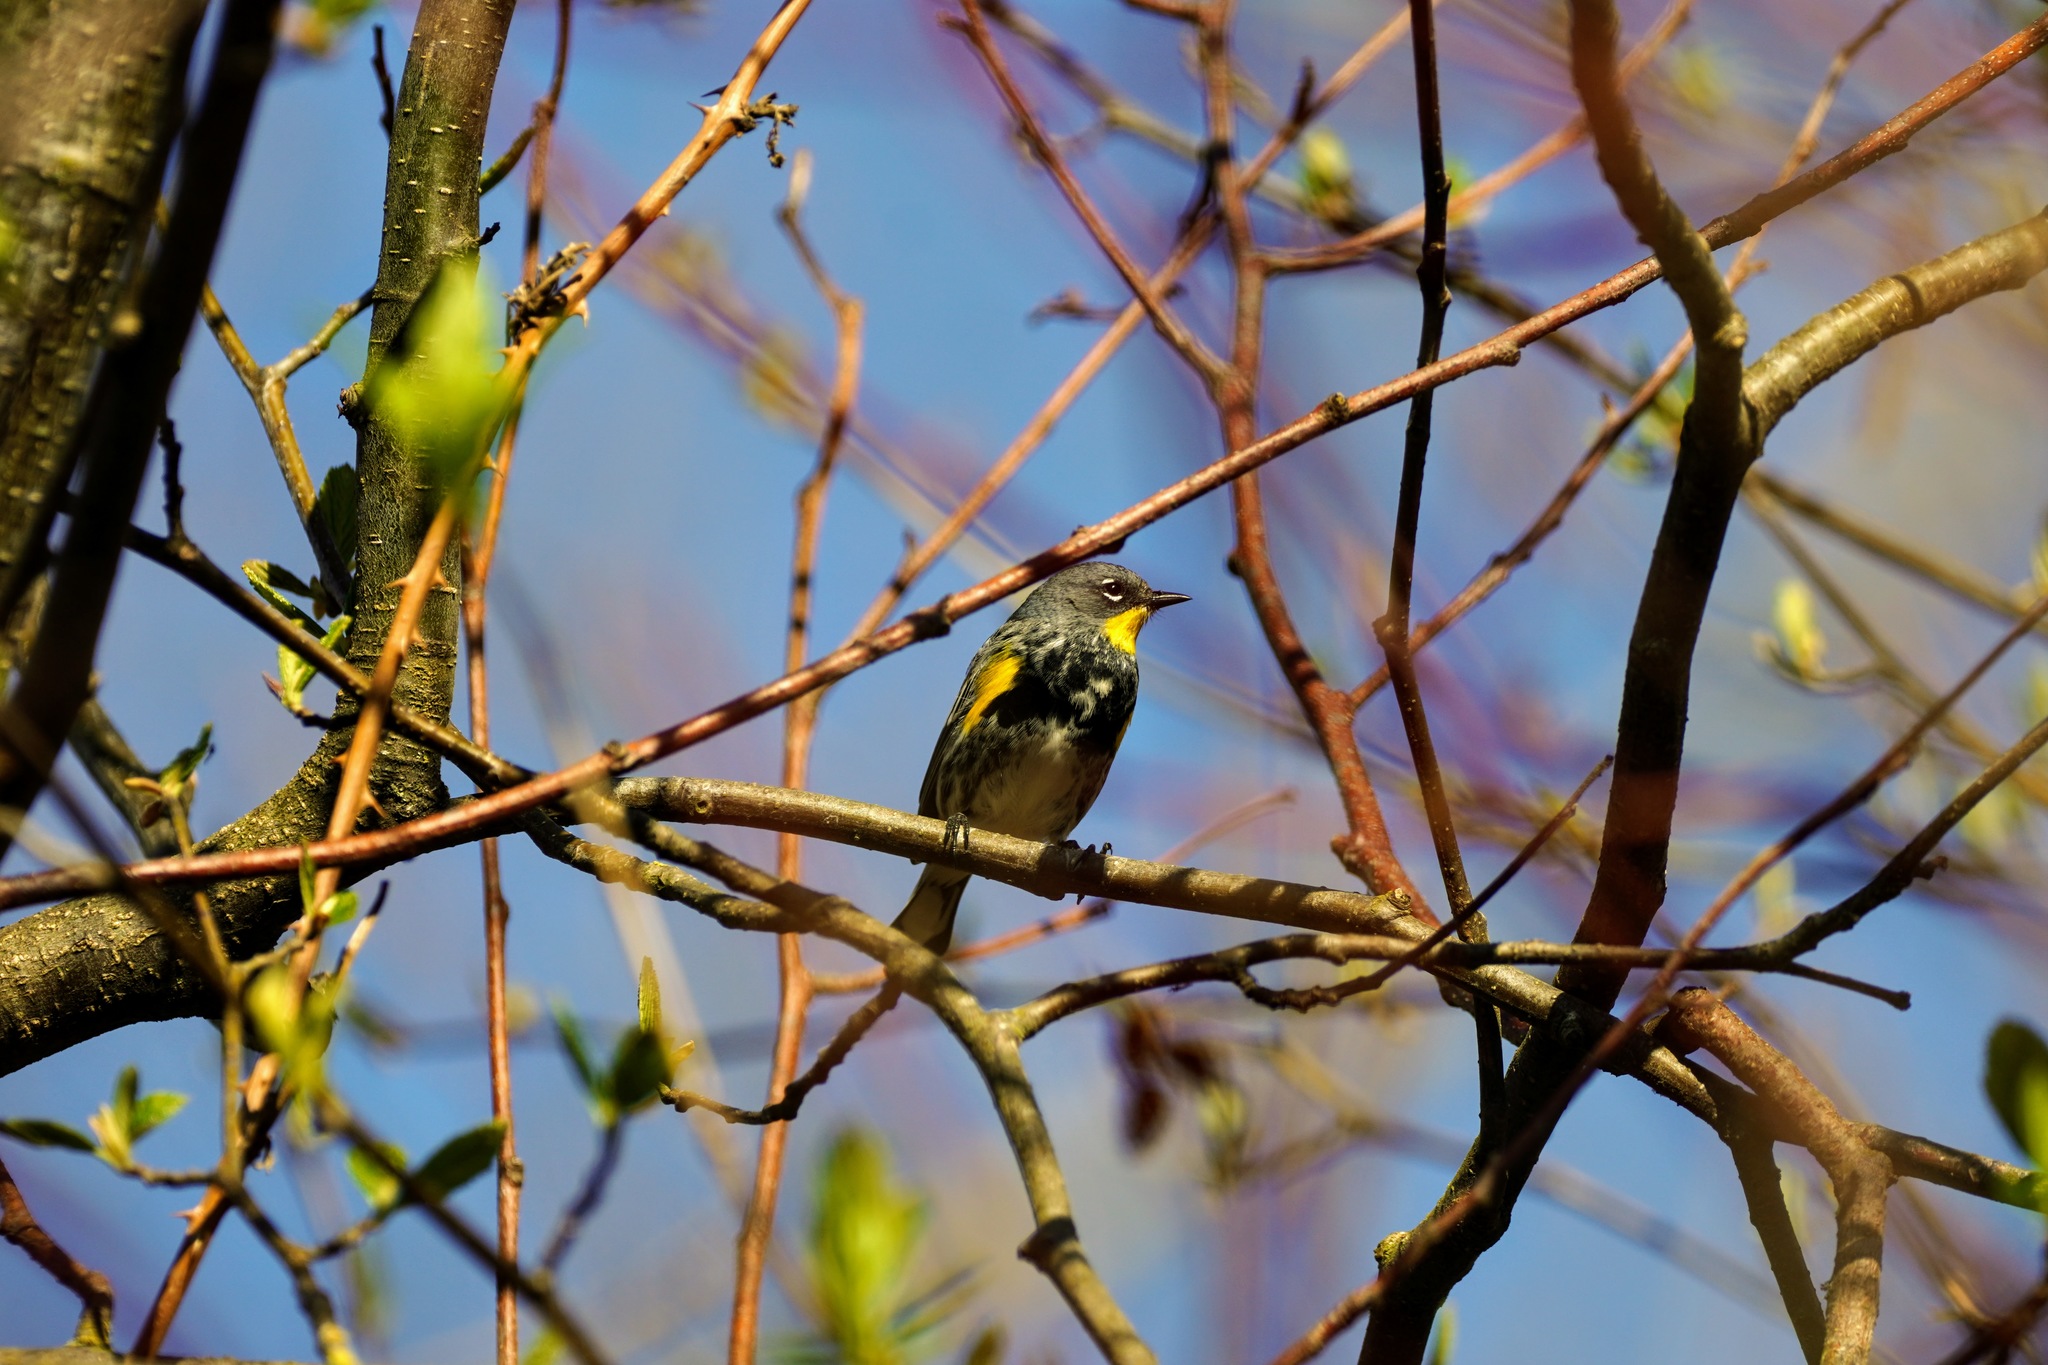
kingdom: Animalia
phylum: Chordata
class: Aves
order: Passeriformes
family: Parulidae
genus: Setophaga
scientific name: Setophaga coronata
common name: Myrtle warbler
